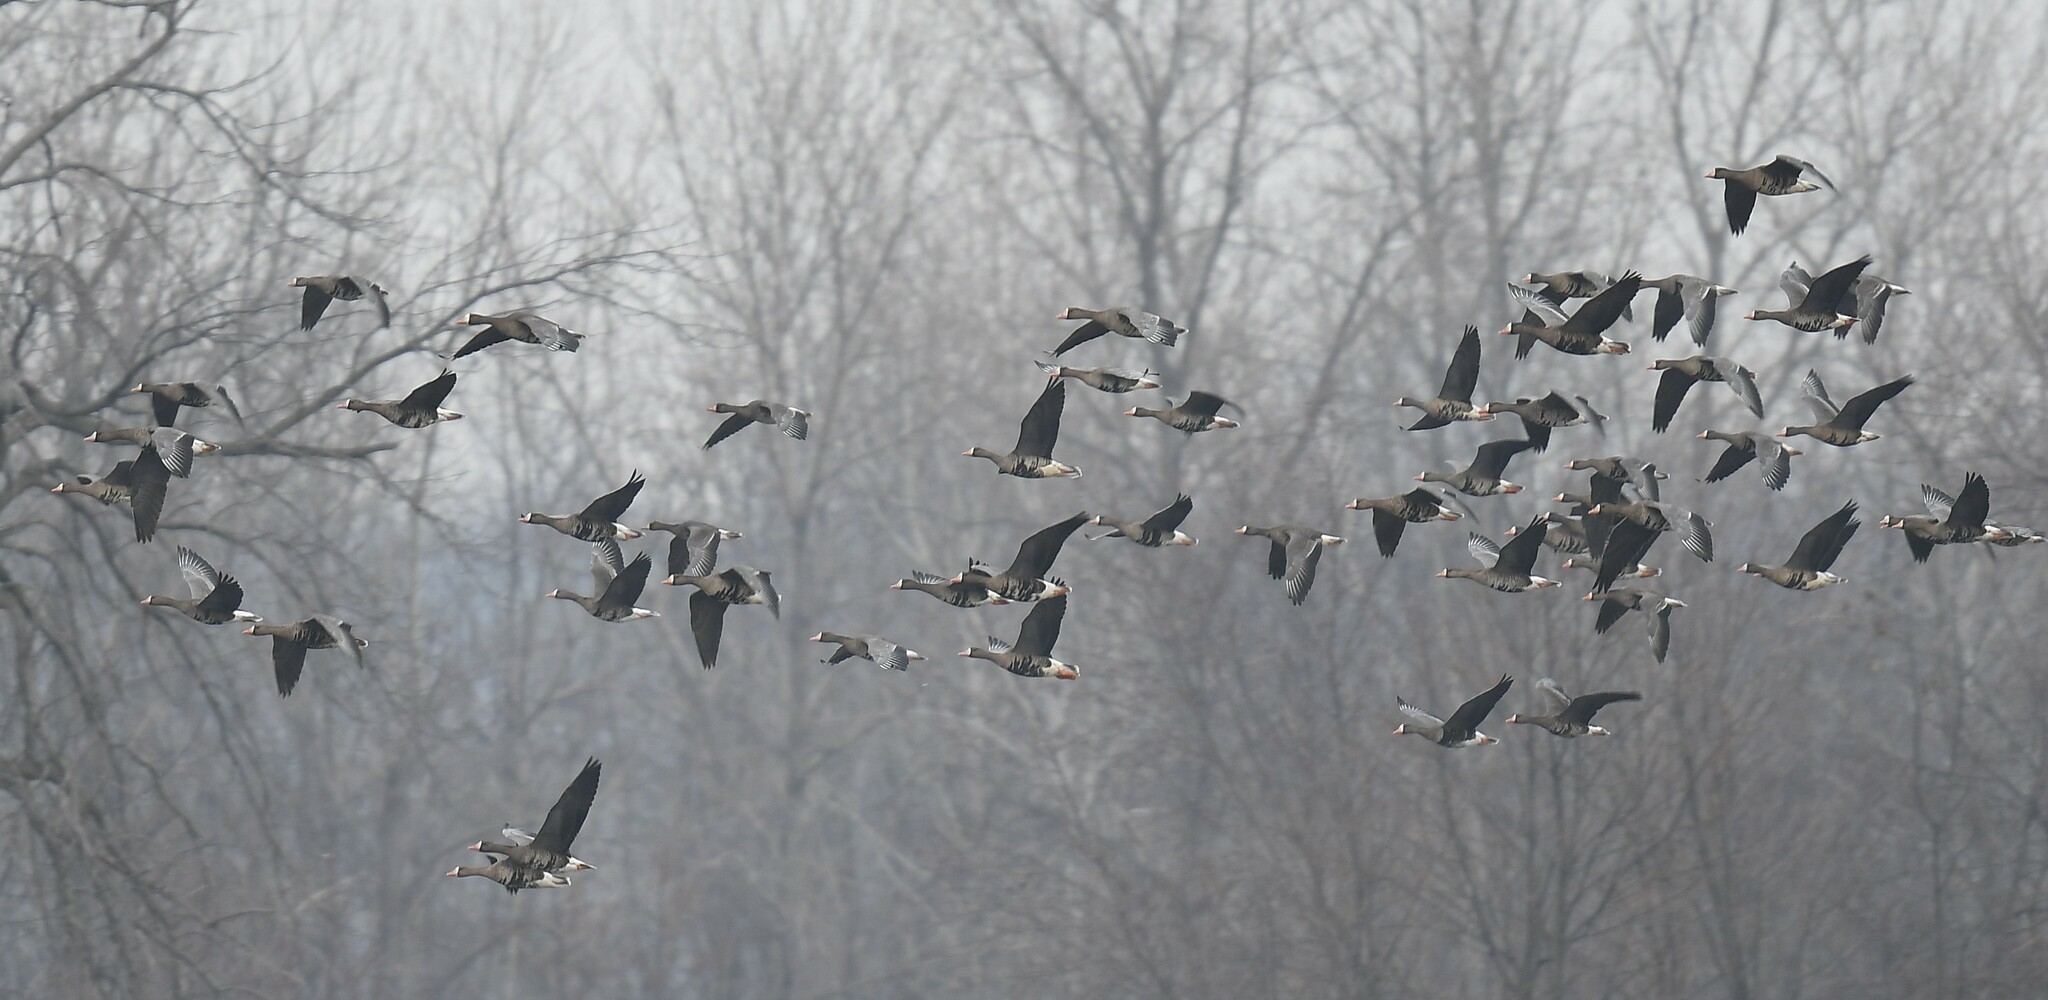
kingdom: Animalia
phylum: Chordata
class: Aves
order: Anseriformes
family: Anatidae
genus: Anser
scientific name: Anser albifrons
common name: Greater white-fronted goose
